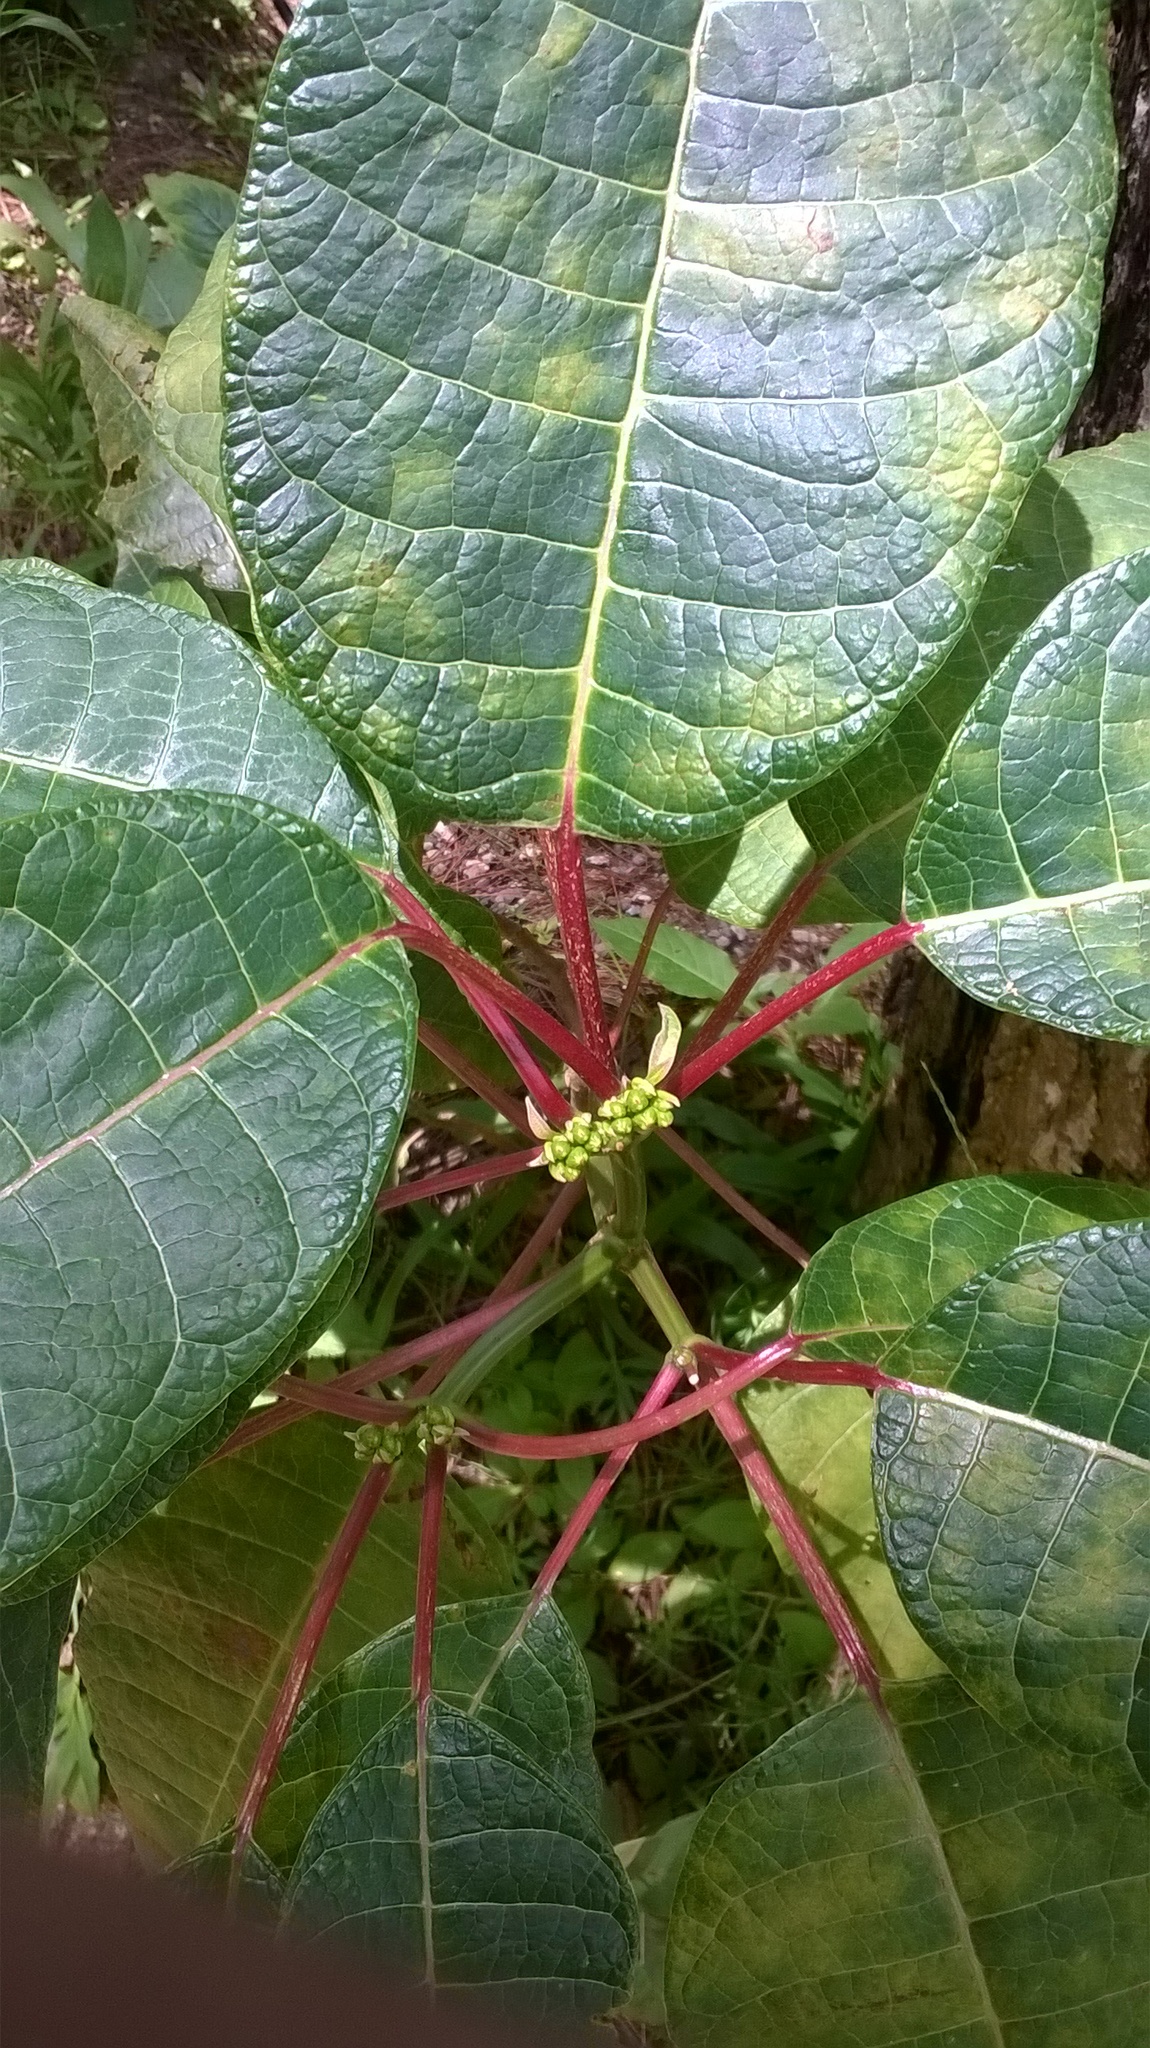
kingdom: Plantae
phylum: Tracheophyta
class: Magnoliopsida
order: Malpighiales
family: Euphorbiaceae
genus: Euphorbia
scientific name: Euphorbia pulcherrima
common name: Christmas-flower
